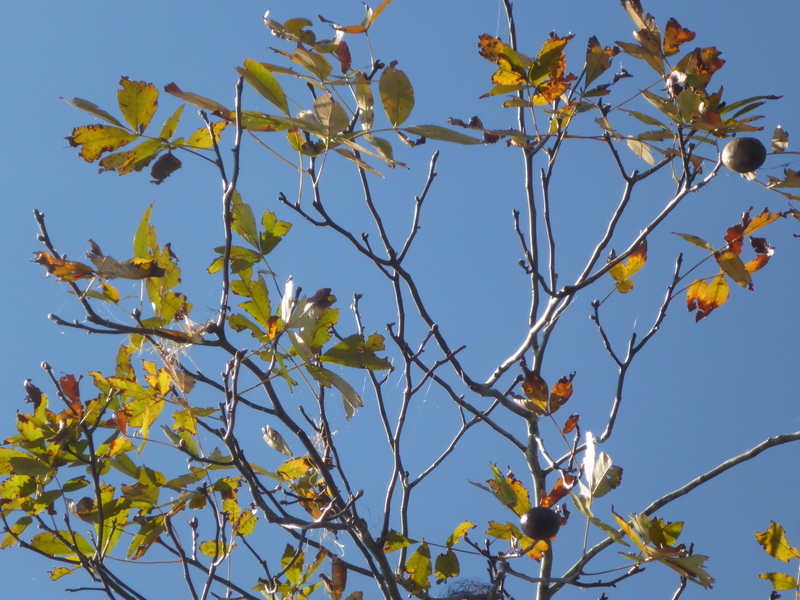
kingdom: Plantae
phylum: Tracheophyta
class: Magnoliopsida
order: Fagales
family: Juglandaceae
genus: Carya
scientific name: Carya glabra
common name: Pignut hickory
